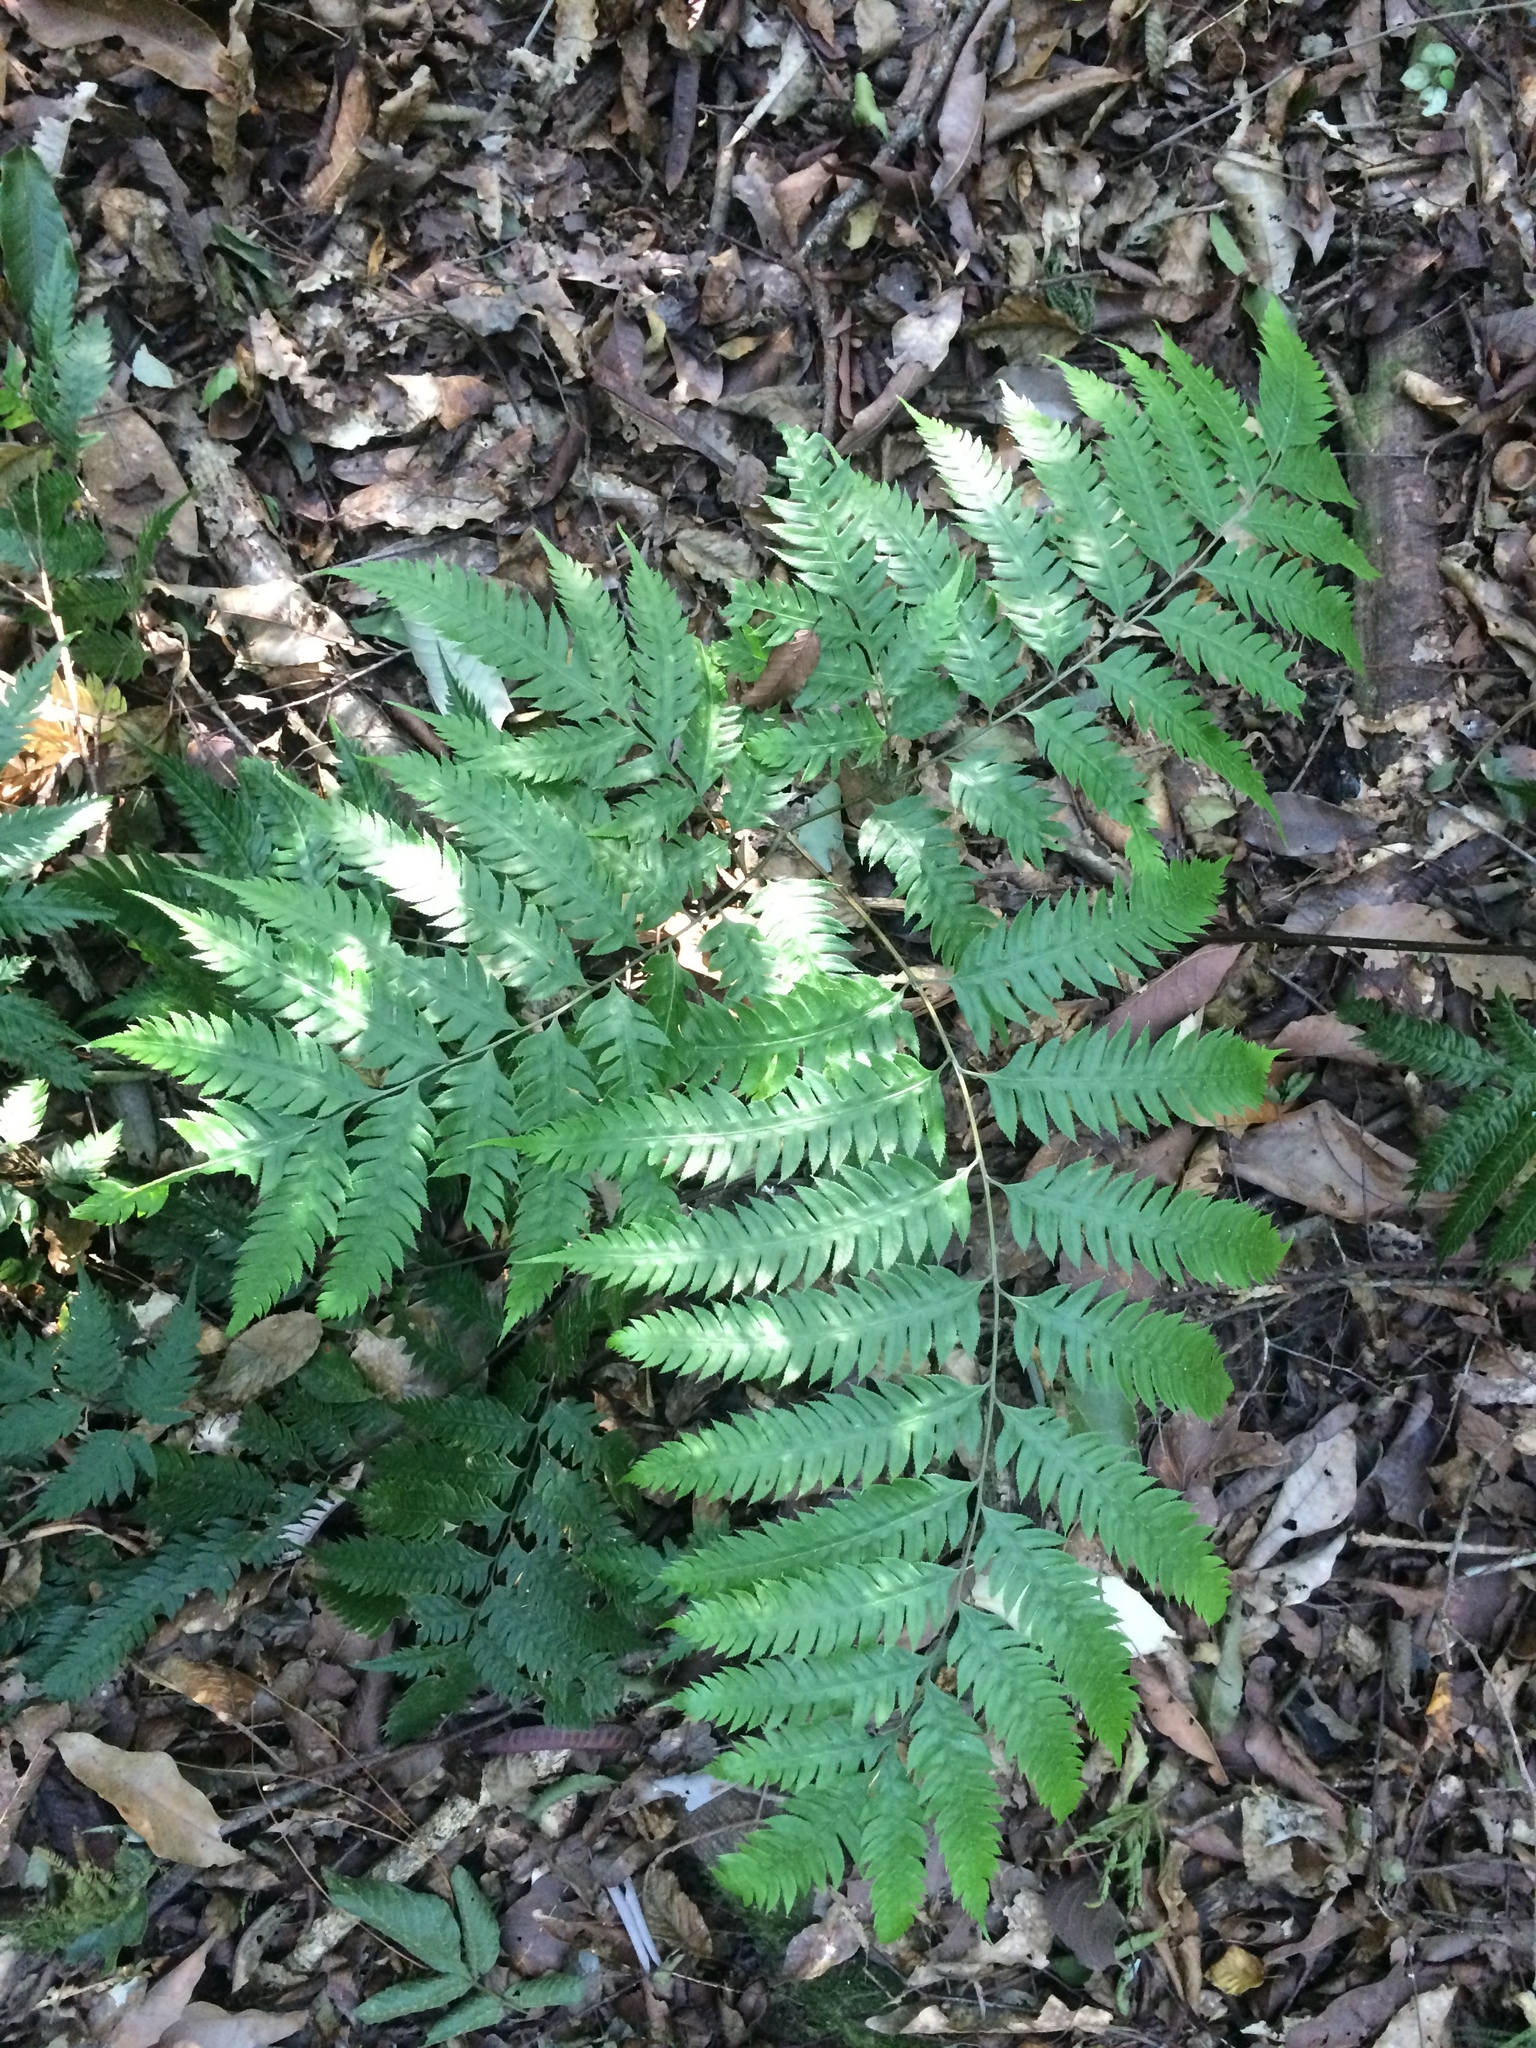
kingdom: Plantae
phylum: Tracheophyta
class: Polypodiopsida
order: Polypodiales
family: Pteridaceae
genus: Pteris
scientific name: Pteris orizabae
